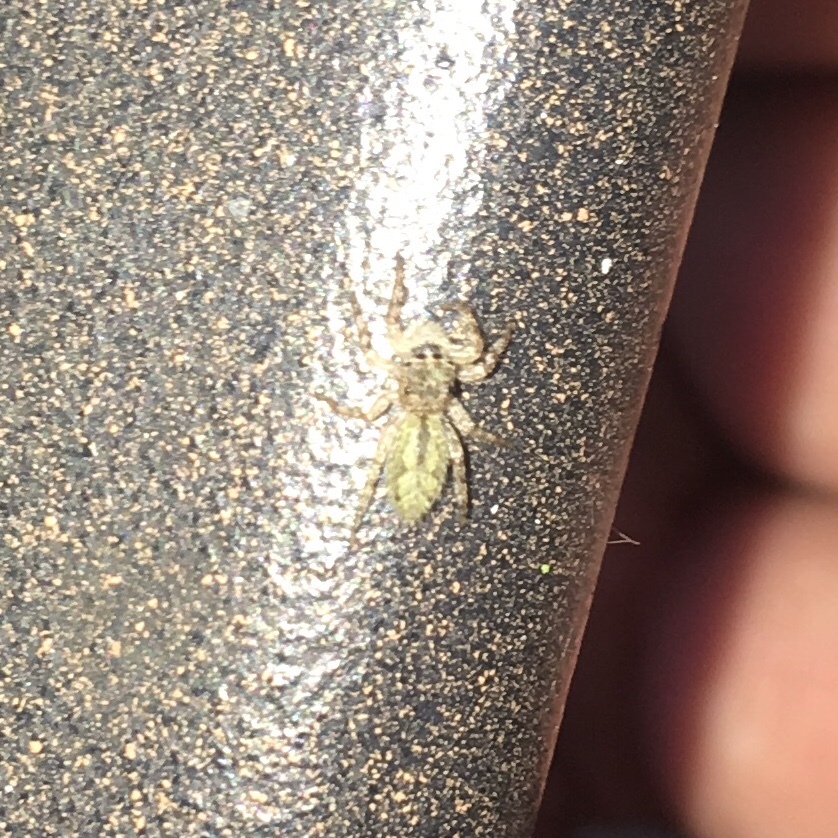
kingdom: Animalia
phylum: Arthropoda
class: Arachnida
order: Araneae
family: Salticidae
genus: Platycryptus
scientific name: Platycryptus undatus
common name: Tan jumping spider
